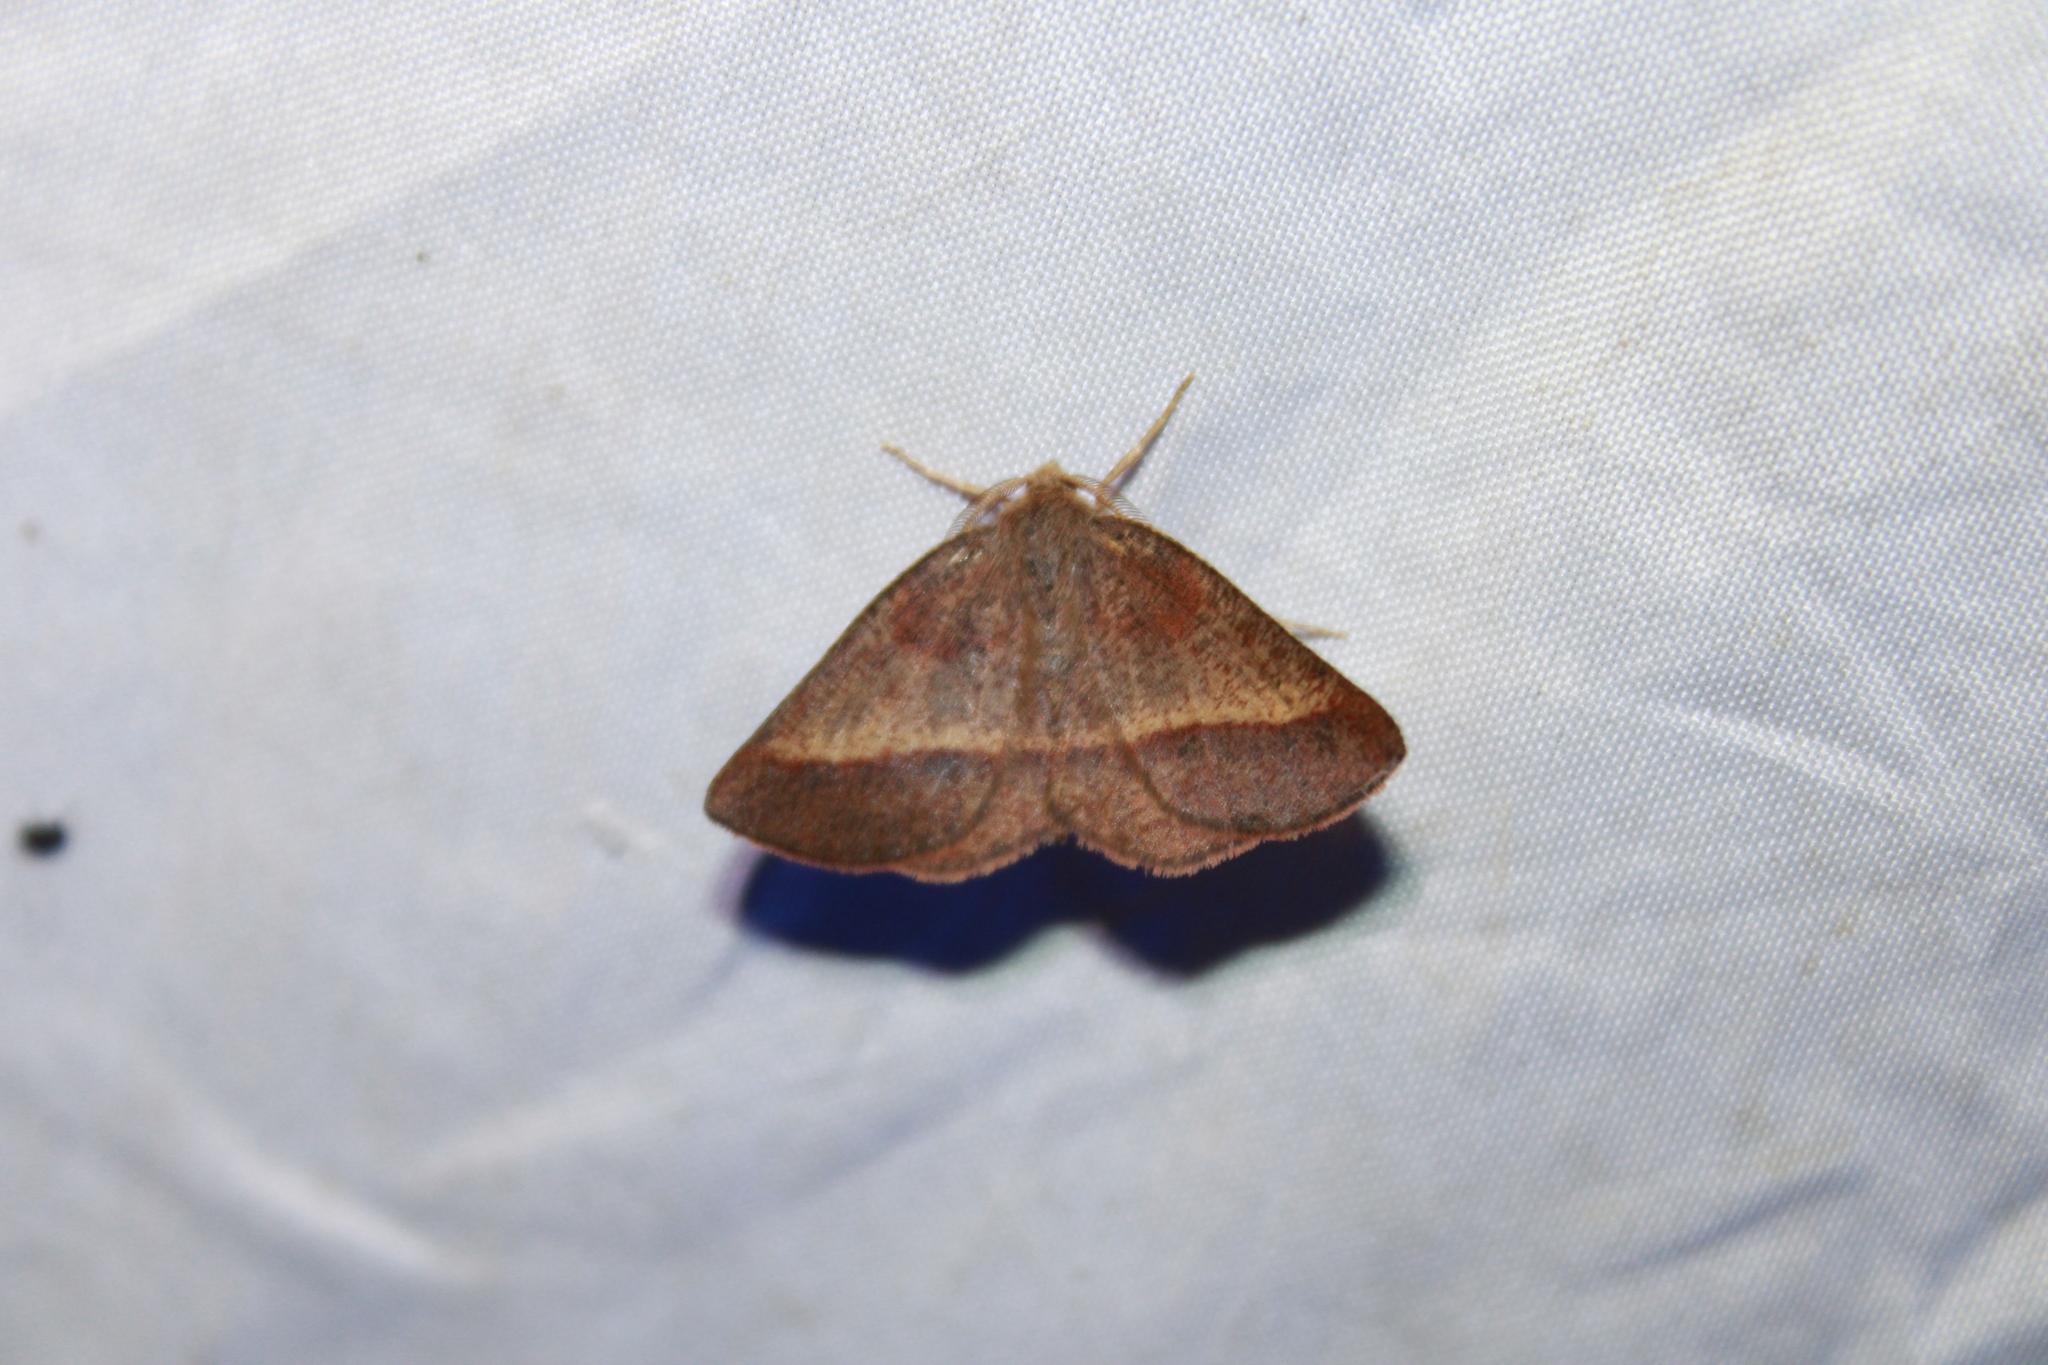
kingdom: Animalia
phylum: Arthropoda
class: Insecta
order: Lepidoptera
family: Geometridae
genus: Metarranthis
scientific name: Metarranthis obfirmaria
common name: Yellow-washed metarranthis
